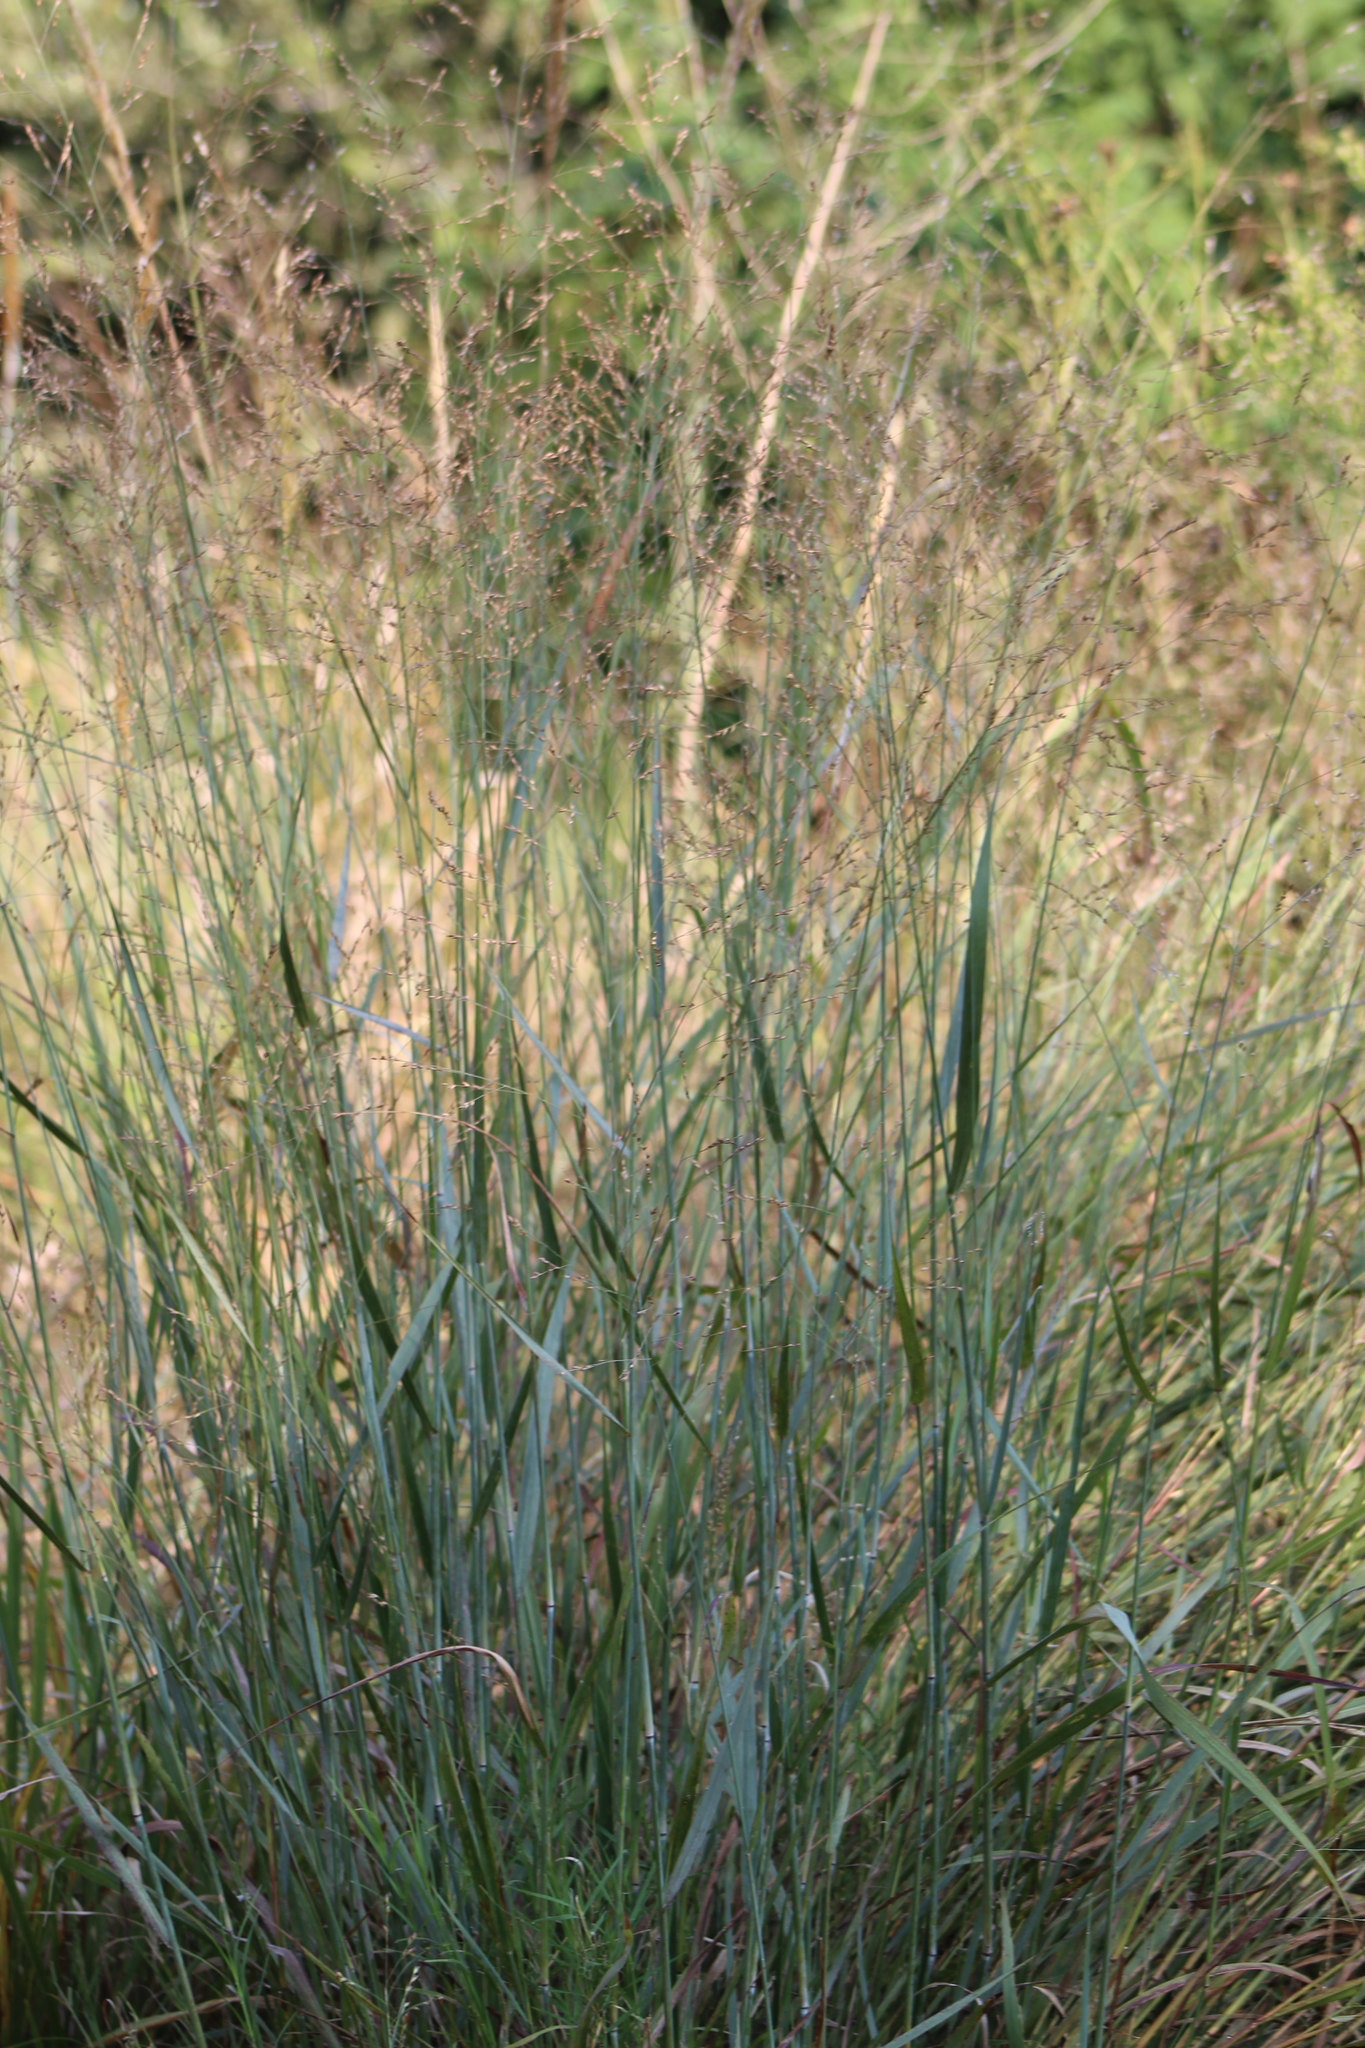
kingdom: Plantae
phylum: Tracheophyta
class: Liliopsida
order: Poales
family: Poaceae
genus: Panicum
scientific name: Panicum virgatum
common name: Switchgrass
